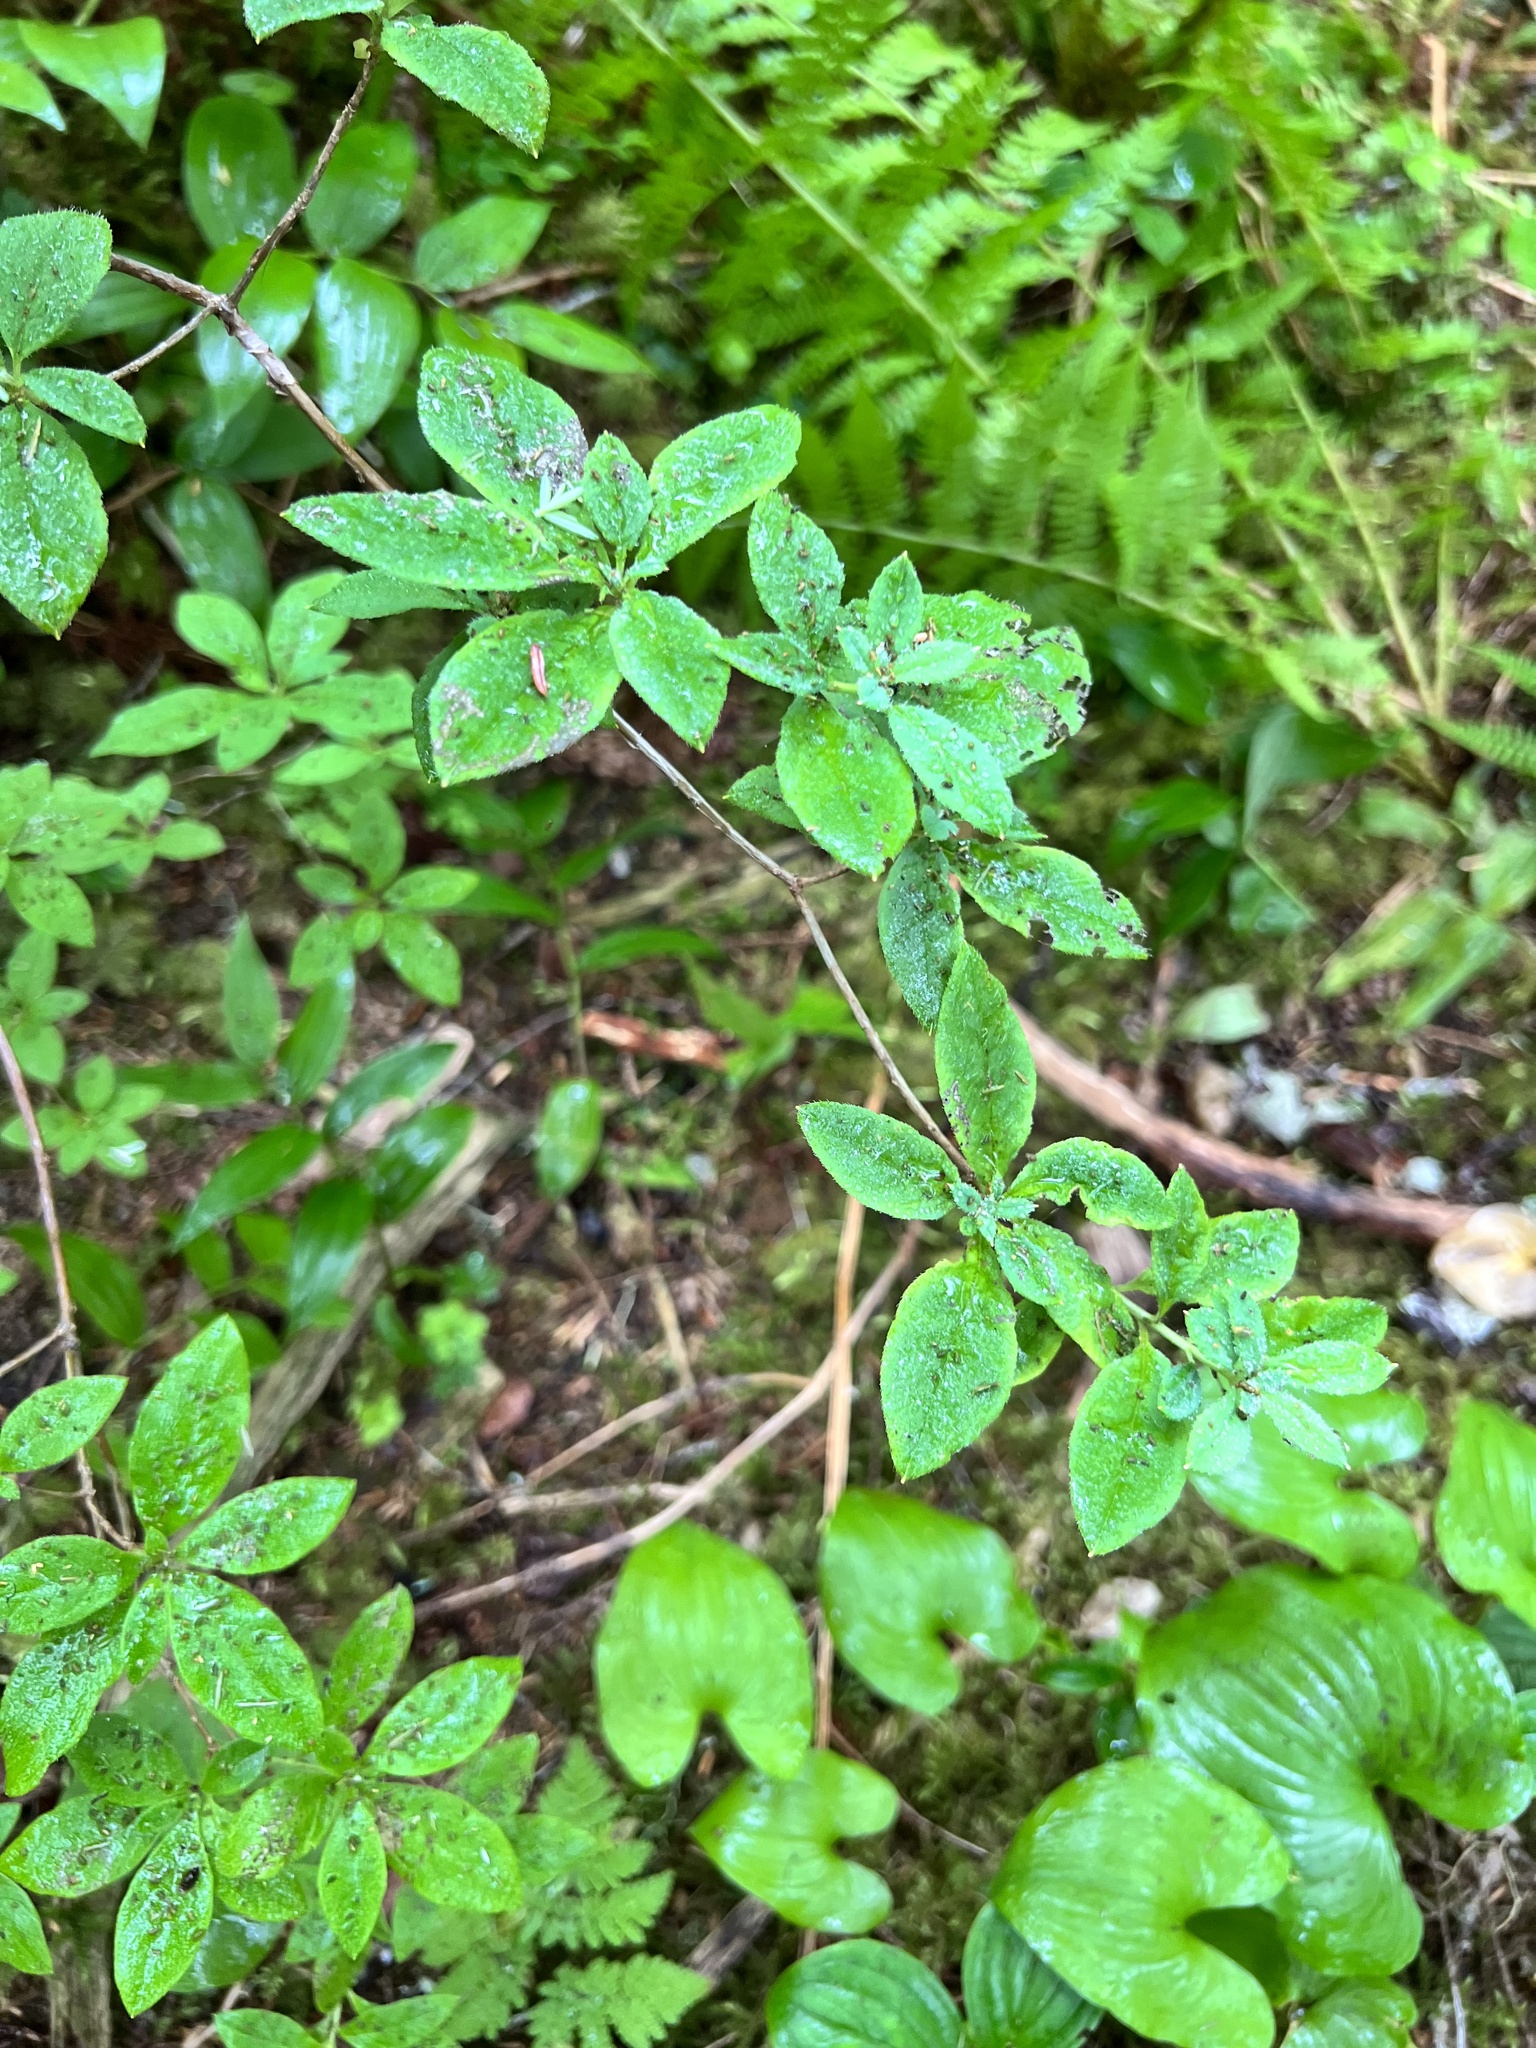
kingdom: Plantae
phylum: Tracheophyta
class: Magnoliopsida
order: Ericales
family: Ericaceae
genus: Rhododendron
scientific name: Rhododendron menziesii
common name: Pacific menziesia
